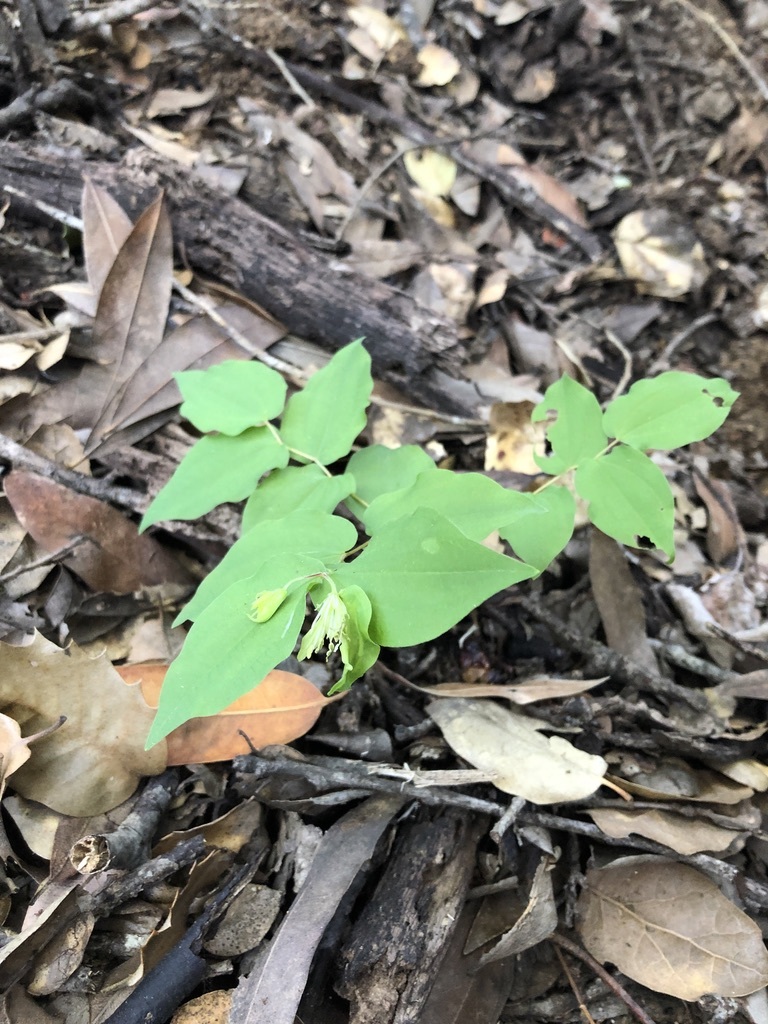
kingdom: Plantae
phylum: Tracheophyta
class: Liliopsida
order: Liliales
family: Liliaceae
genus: Prosartes
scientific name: Prosartes hookeri
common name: Fairy-bells
